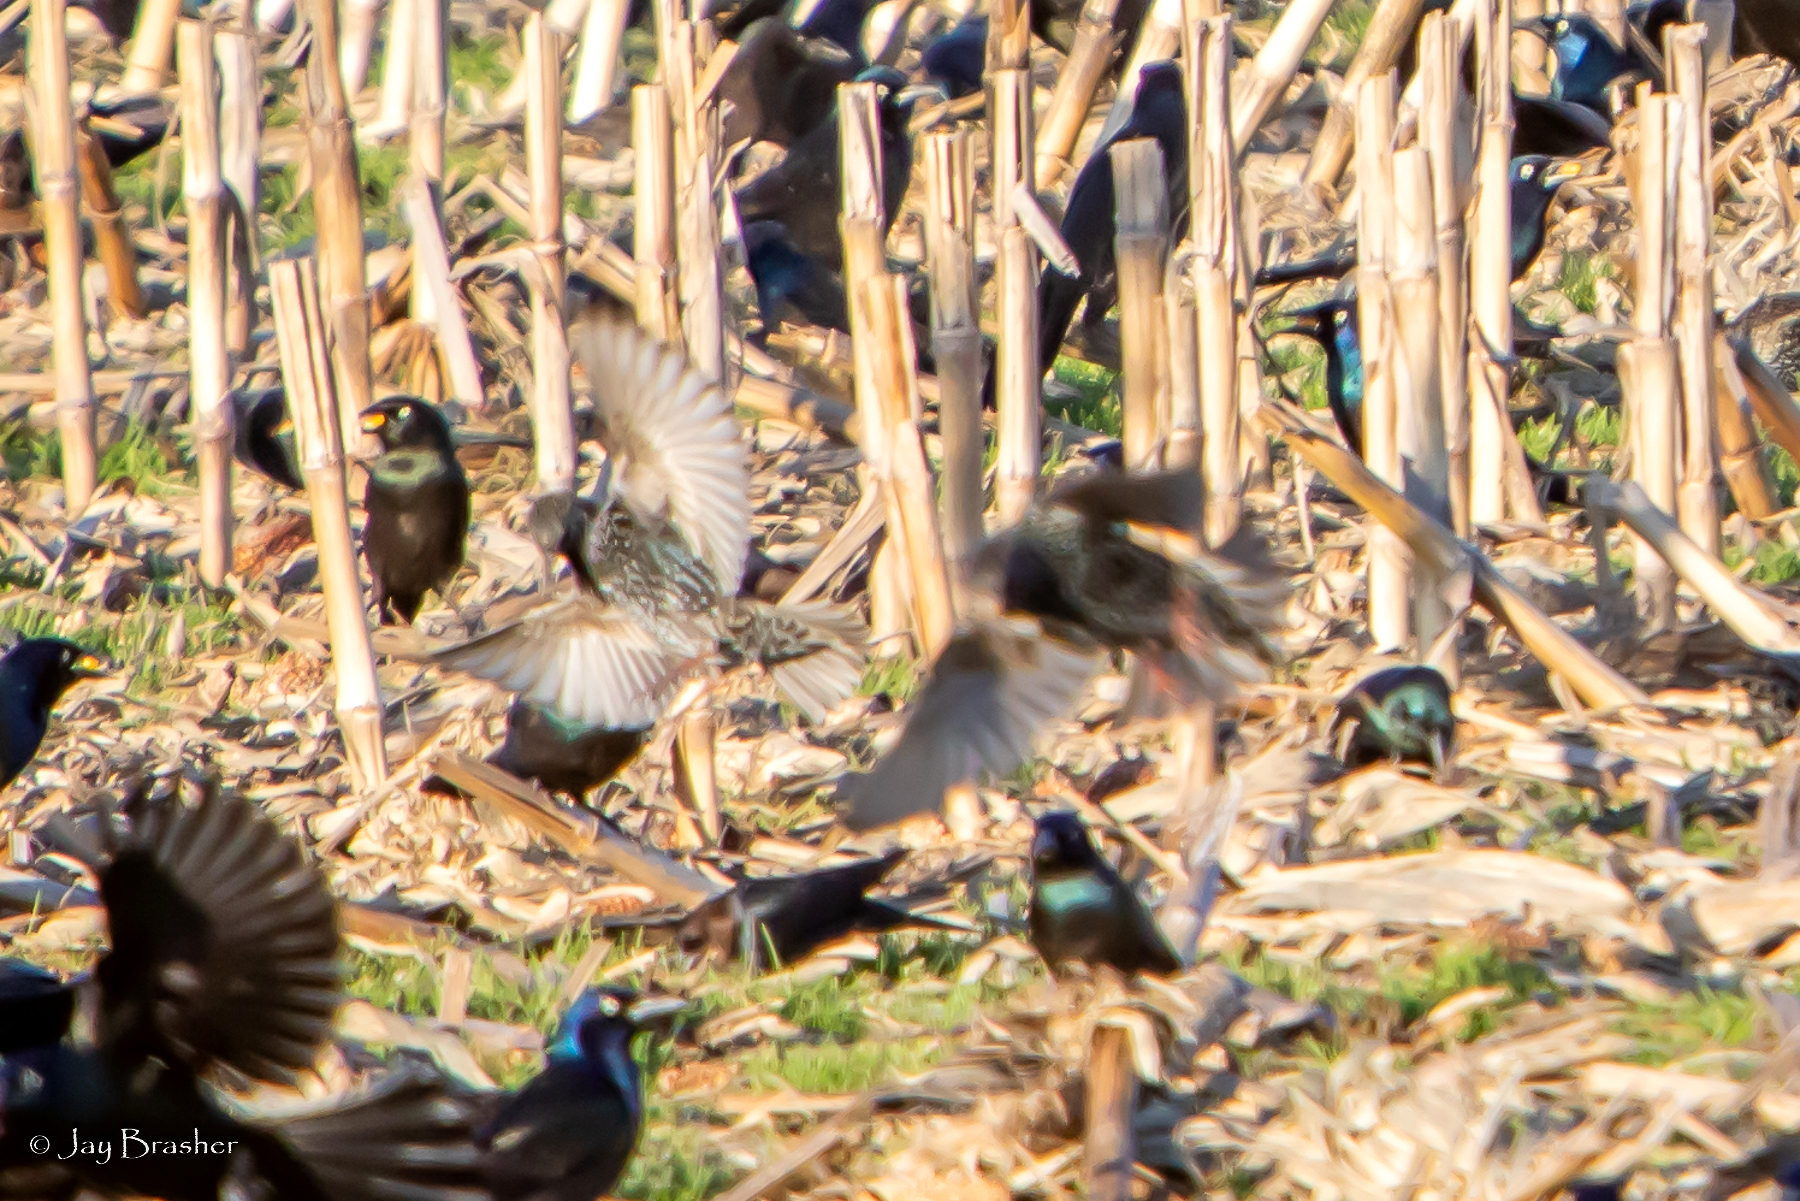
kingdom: Animalia
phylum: Chordata
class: Aves
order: Passeriformes
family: Sturnidae
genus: Sturnus
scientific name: Sturnus vulgaris
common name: Common starling
